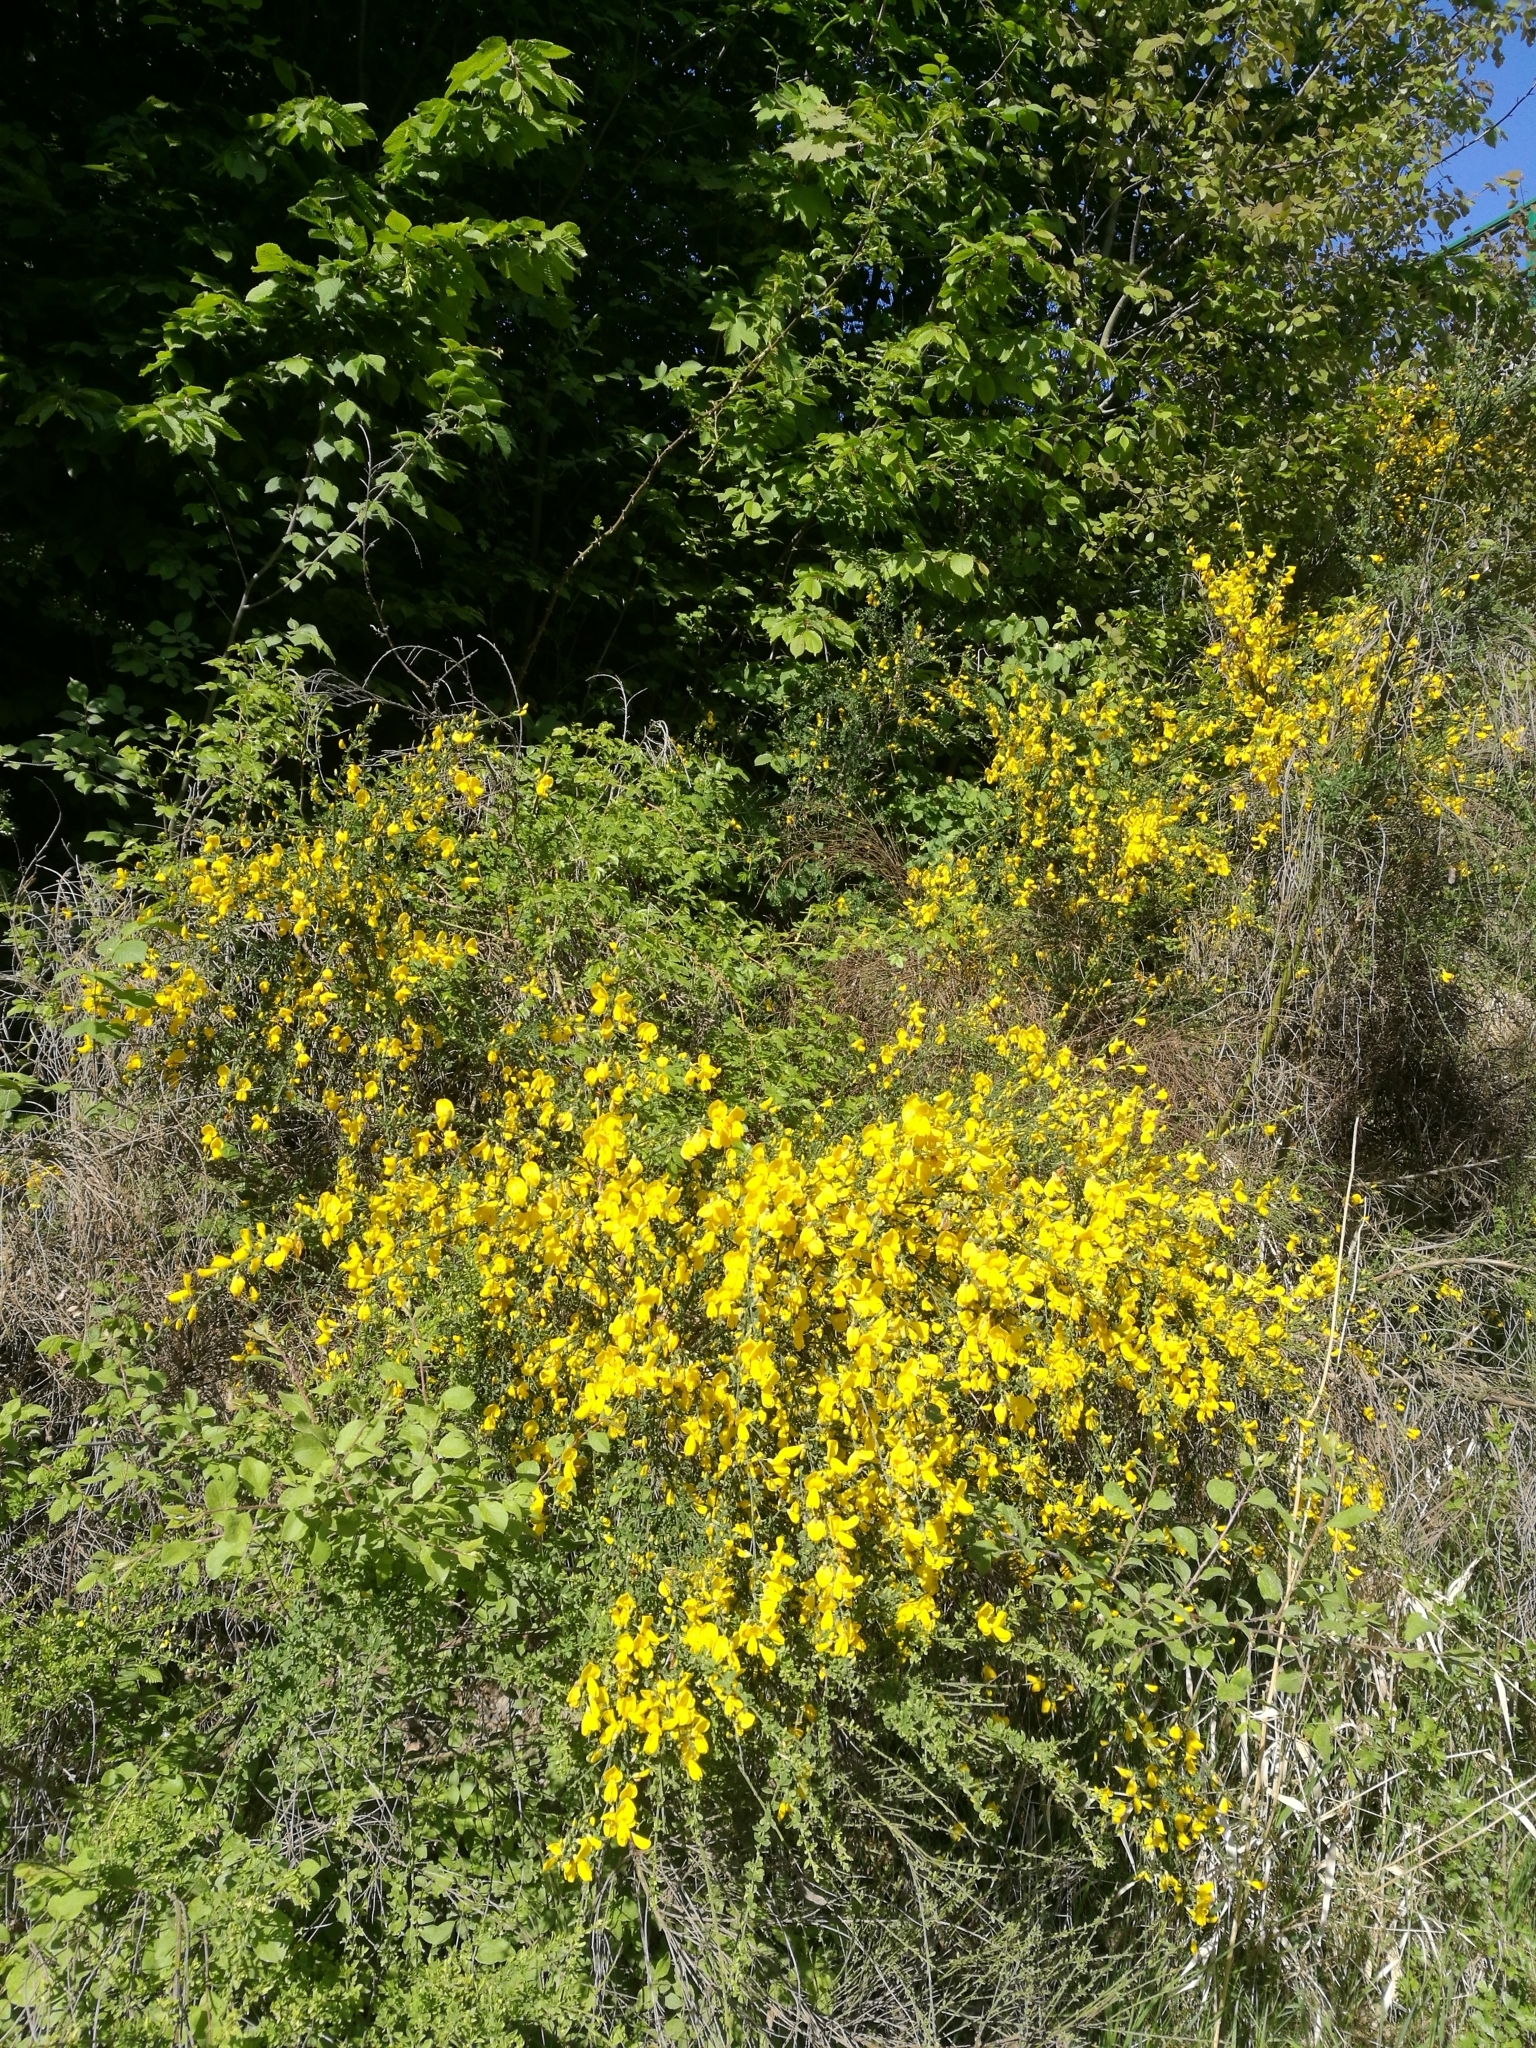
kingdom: Plantae
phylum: Tracheophyta
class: Magnoliopsida
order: Fabales
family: Fabaceae
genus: Cytisus
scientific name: Cytisus scoparius
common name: Scotch broom
